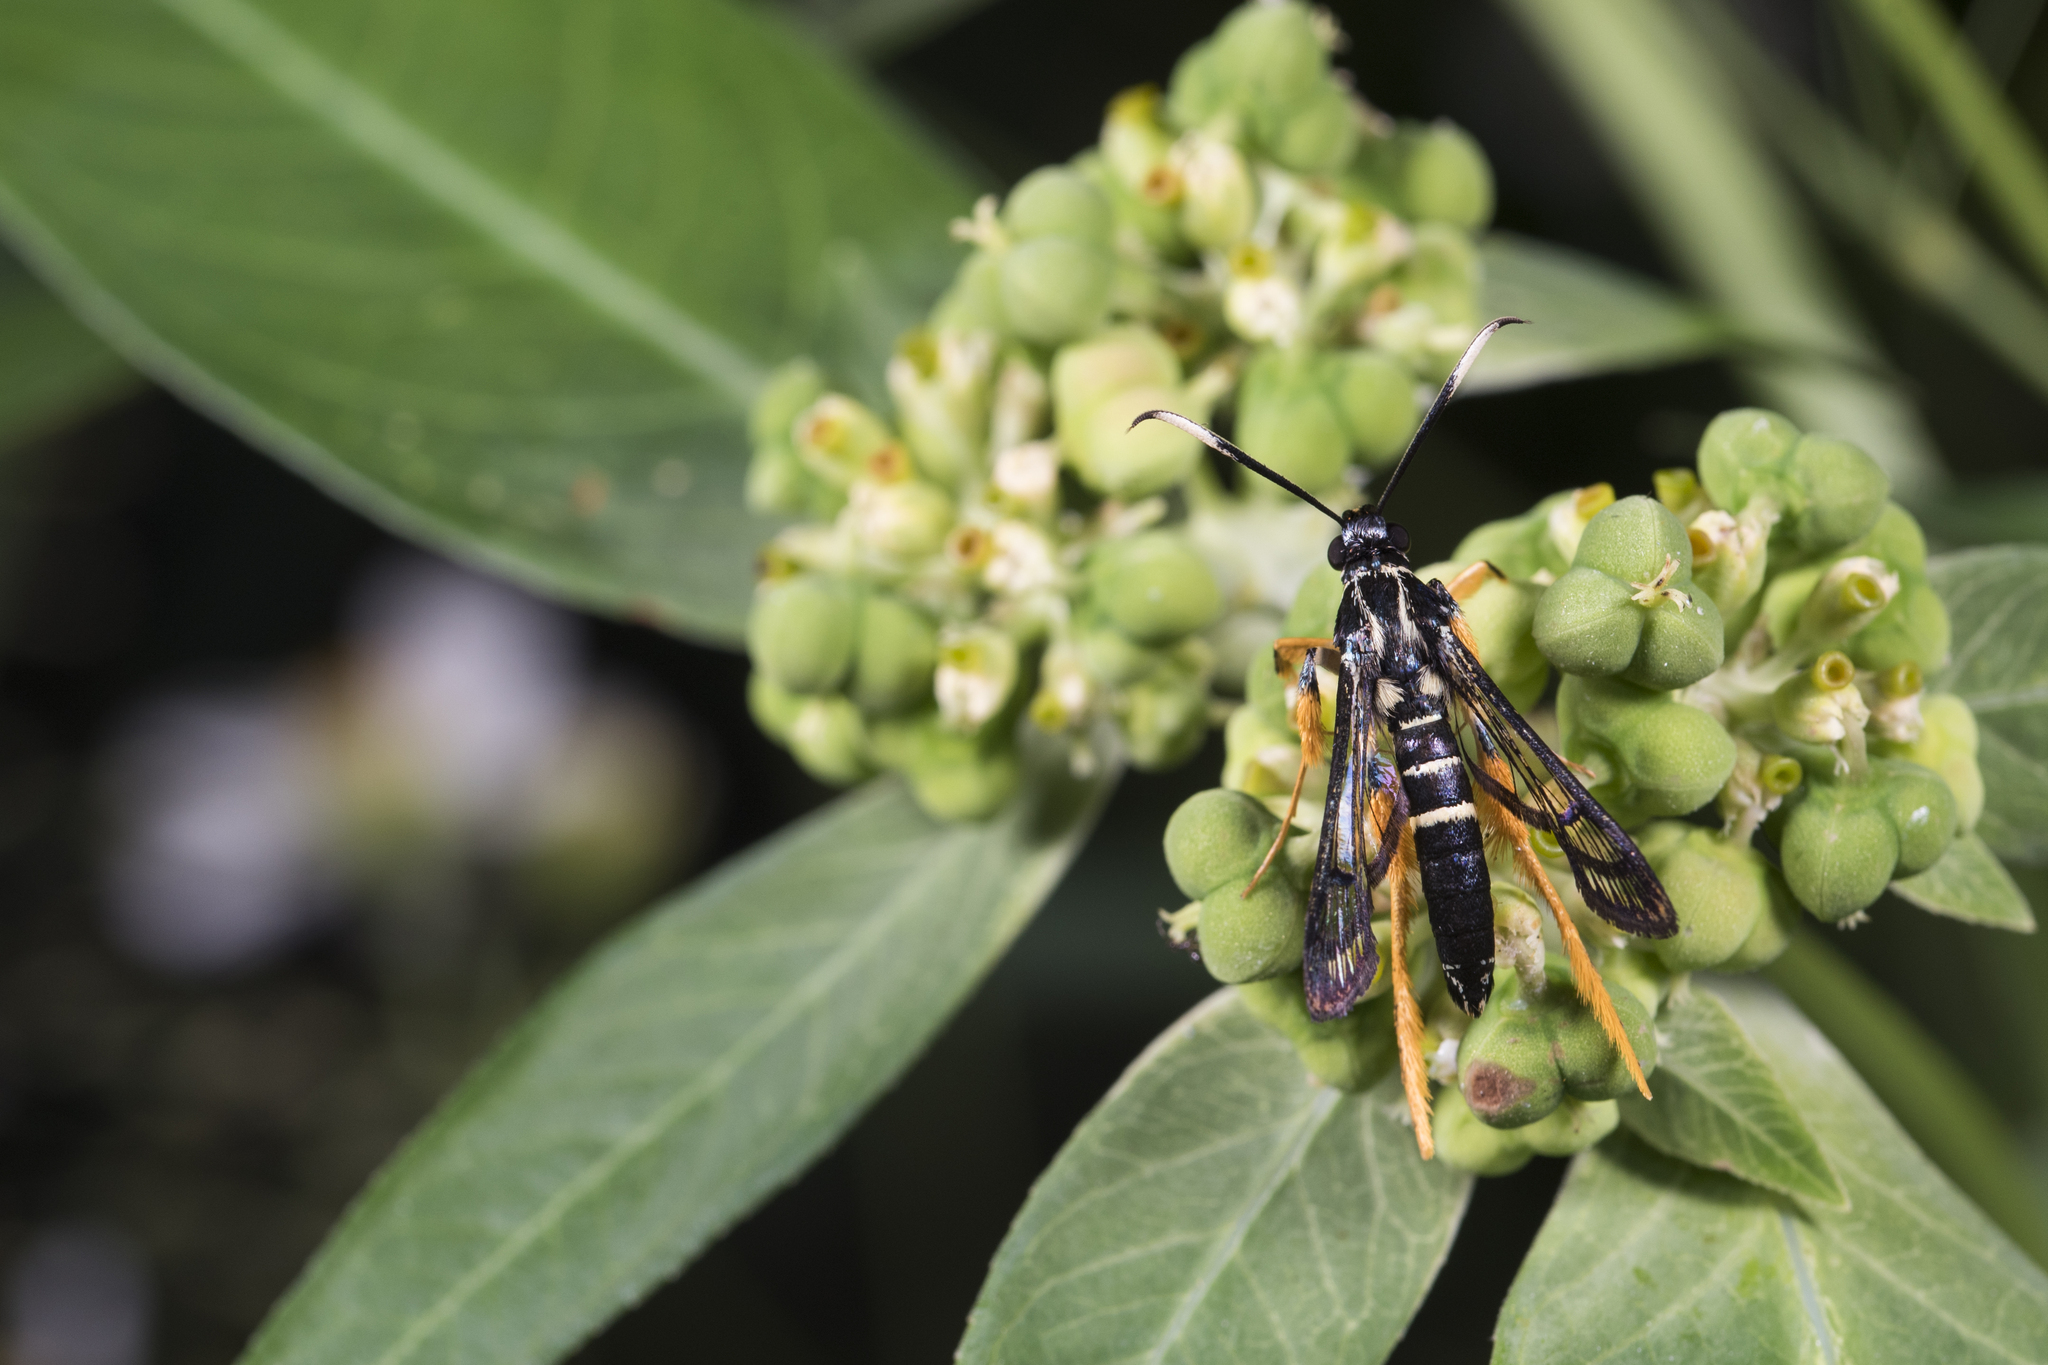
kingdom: Animalia
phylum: Arthropoda
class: Insecta
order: Lepidoptera
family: Sesiidae
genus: Teinotarsina
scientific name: Teinotarsina longitarsa
